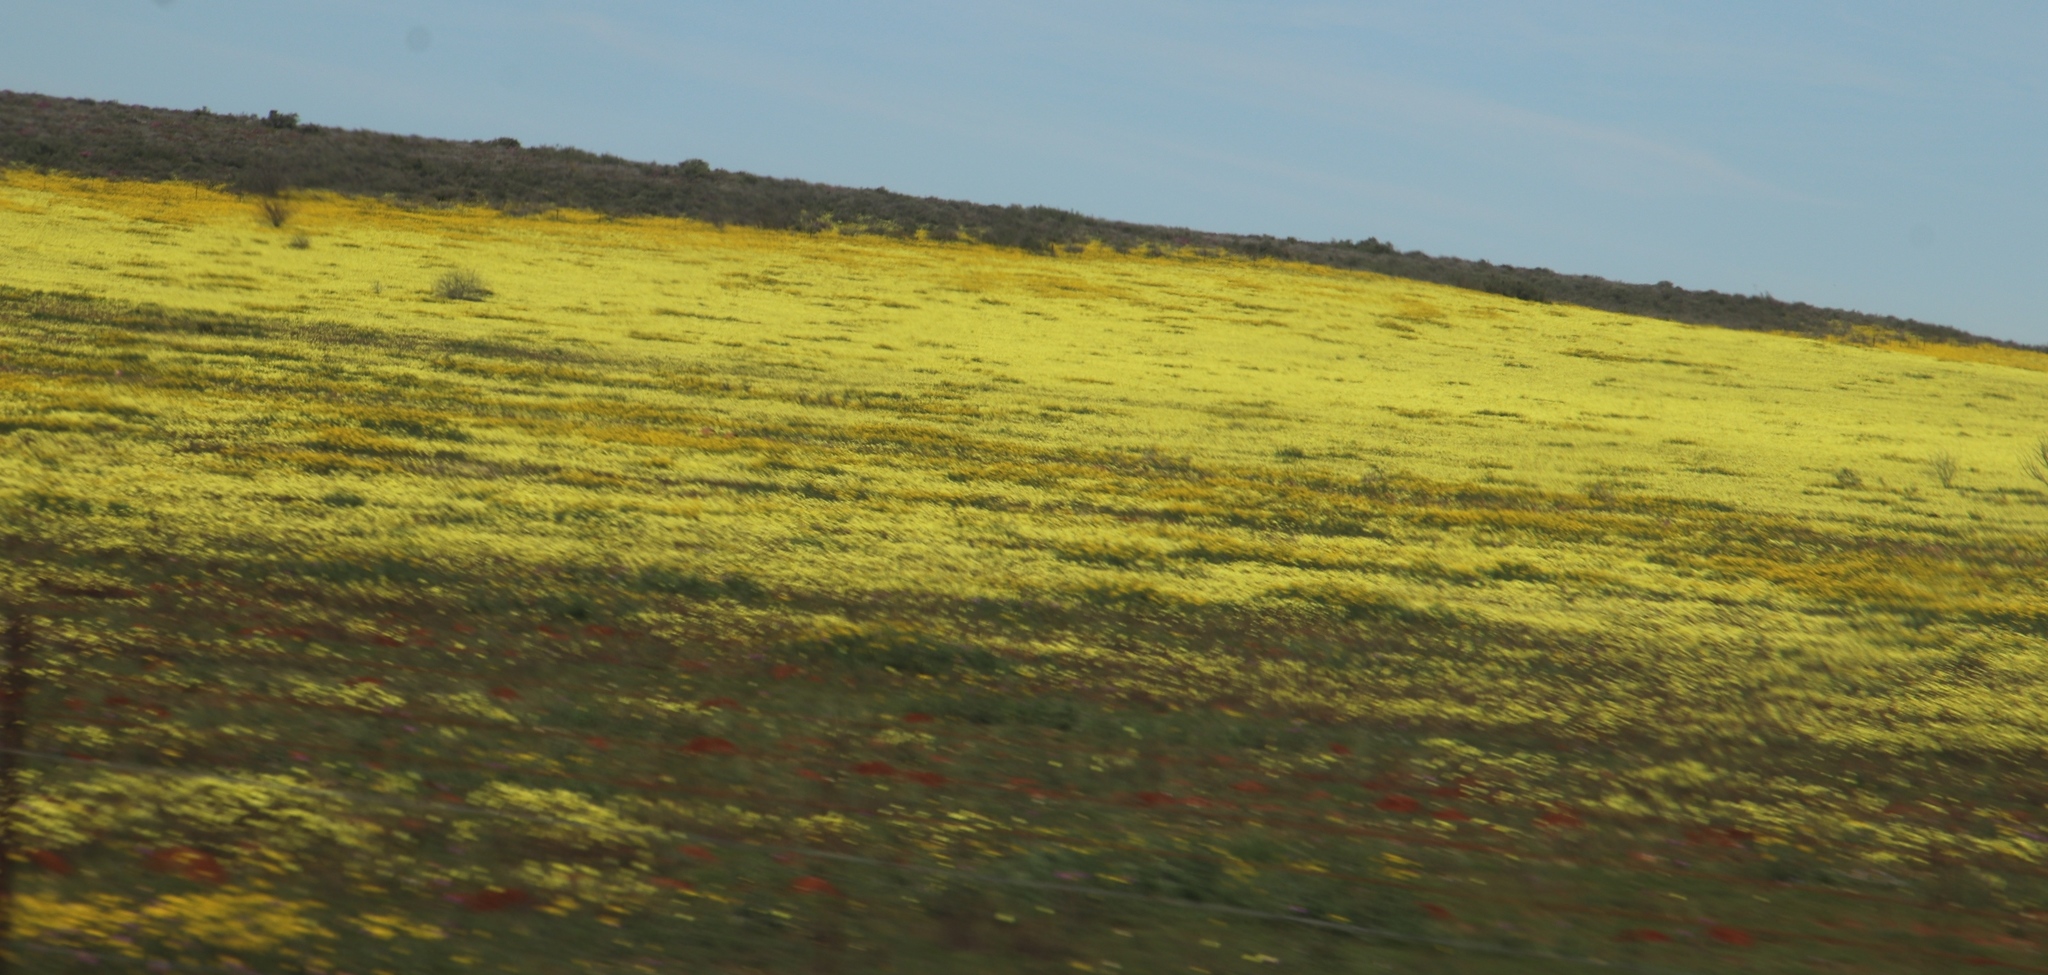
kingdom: Plantae
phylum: Tracheophyta
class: Magnoliopsida
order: Oxalidales
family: Oxalidaceae
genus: Oxalis
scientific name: Oxalis pes-caprae
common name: Bermuda-buttercup
